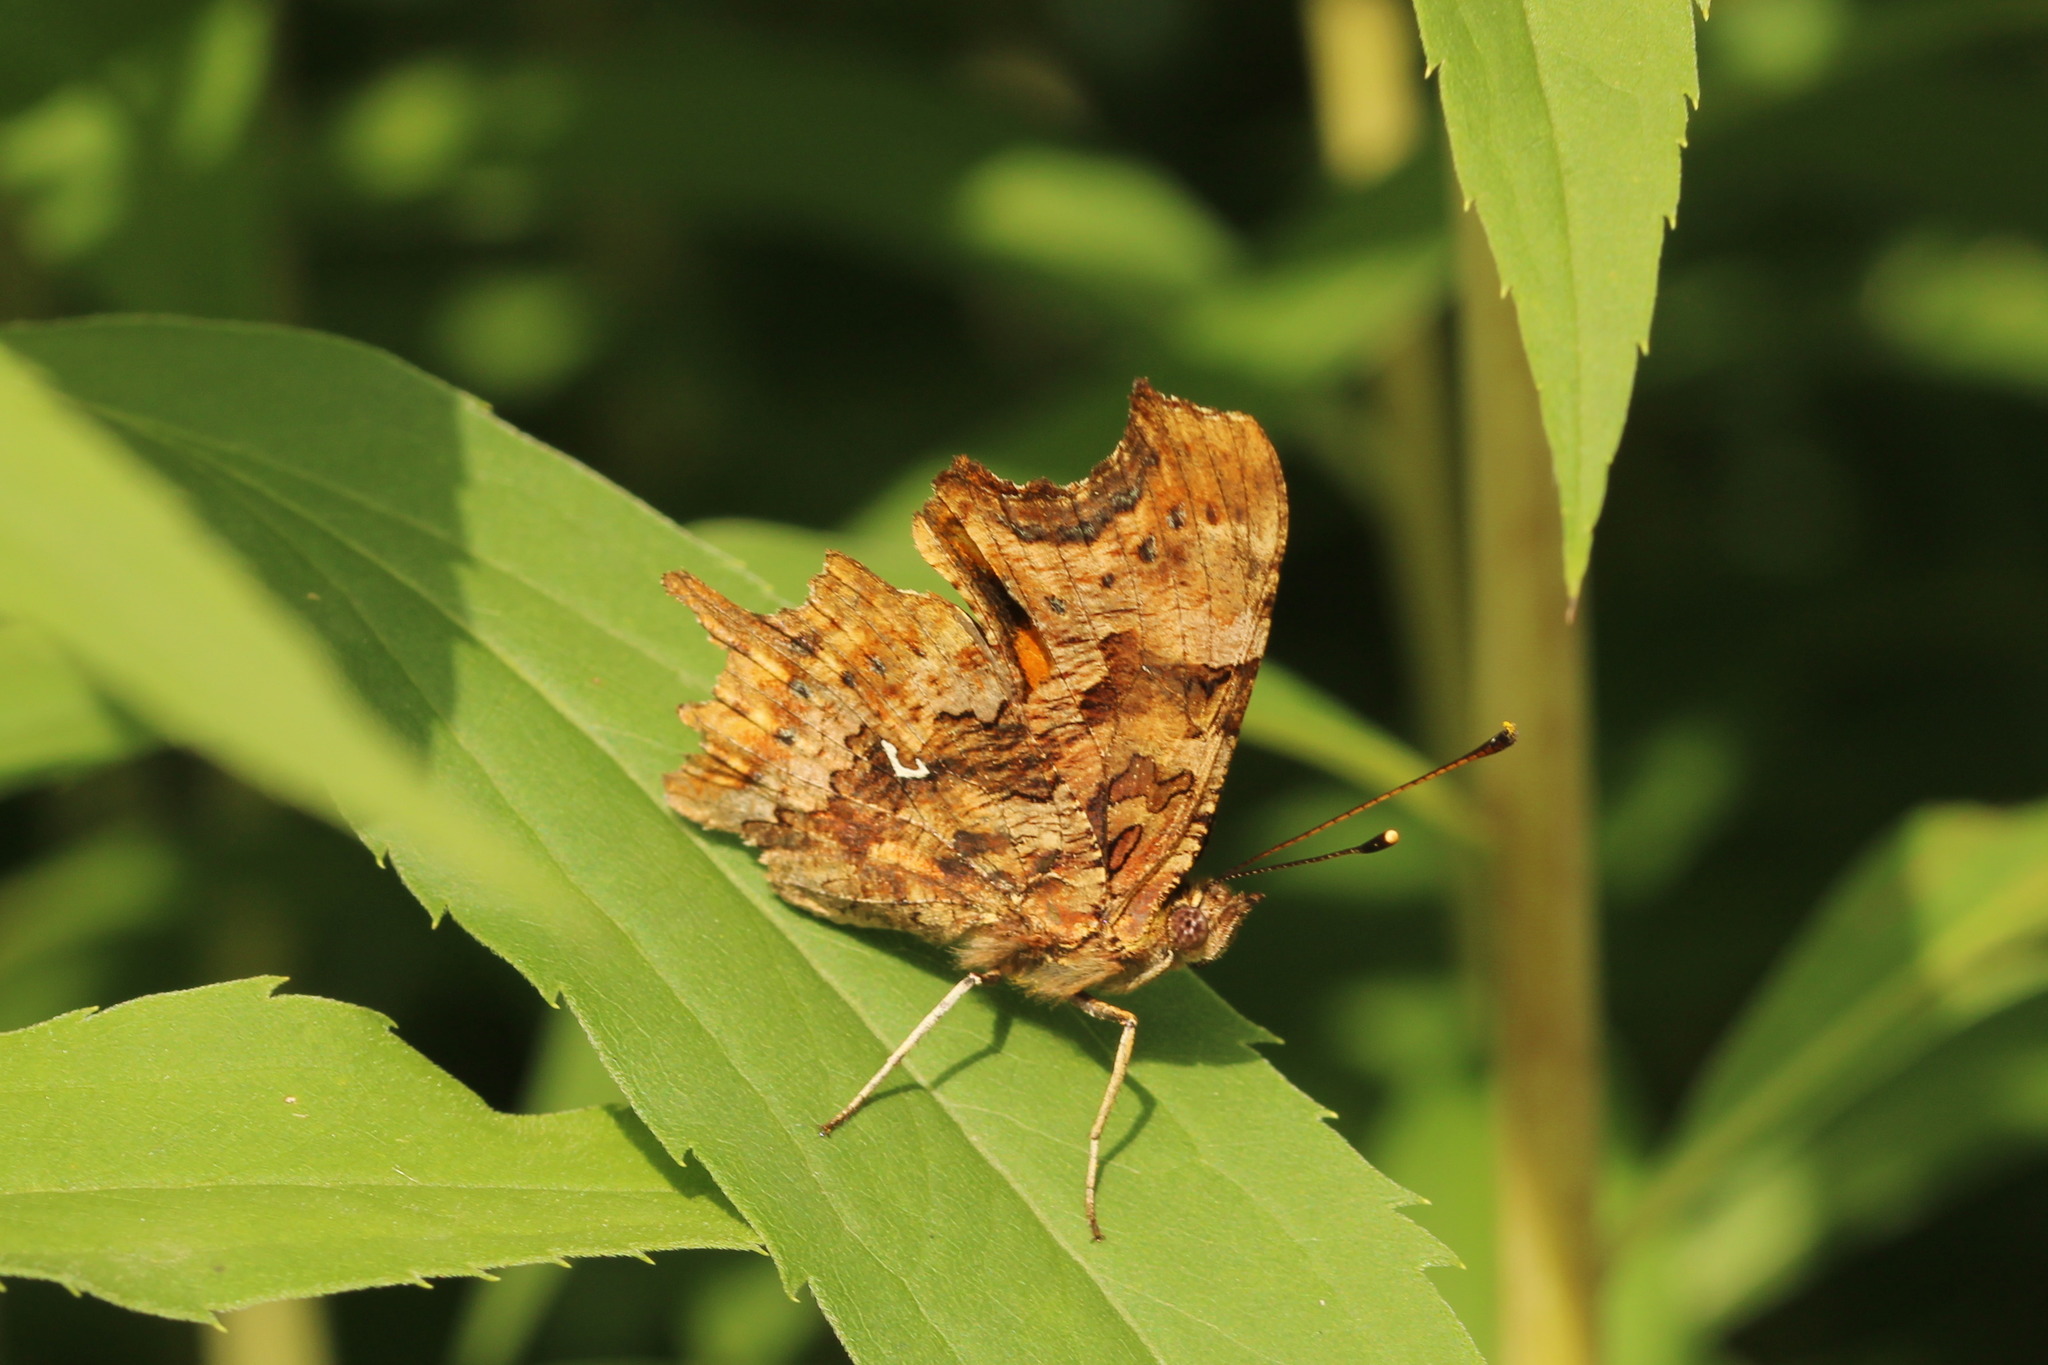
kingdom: Animalia
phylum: Arthropoda
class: Insecta
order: Lepidoptera
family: Nymphalidae
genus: Polygonia
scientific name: Polygonia c-album
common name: Comma
